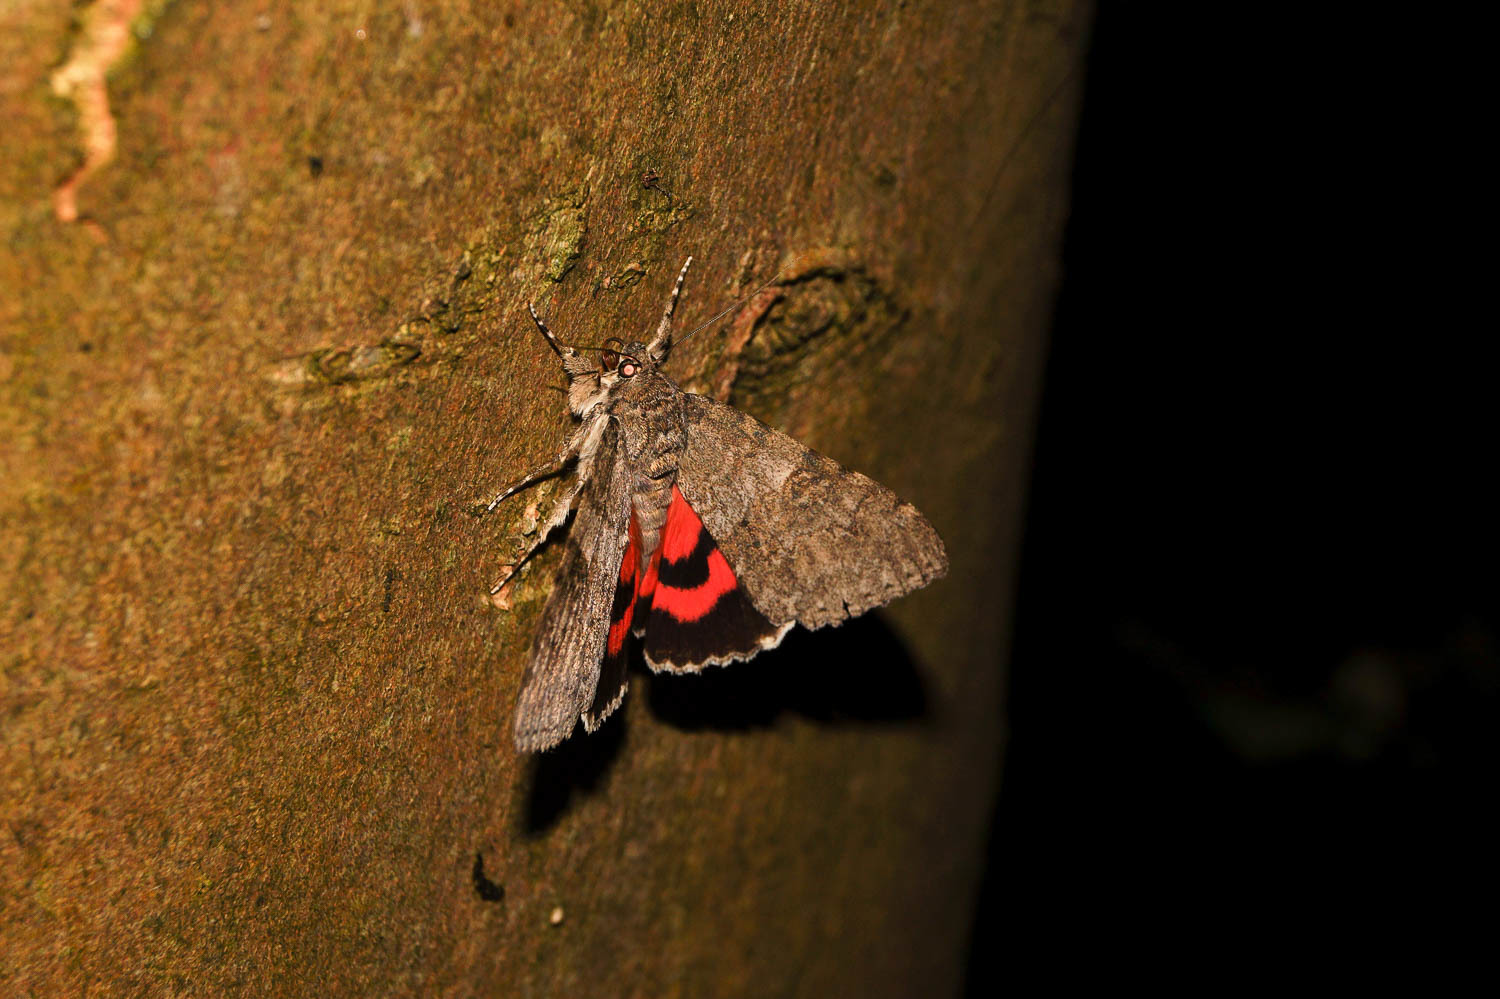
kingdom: Animalia
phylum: Arthropoda
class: Insecta
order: Lepidoptera
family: Erebidae
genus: Catocala
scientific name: Catocala nupta
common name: Red underwing
